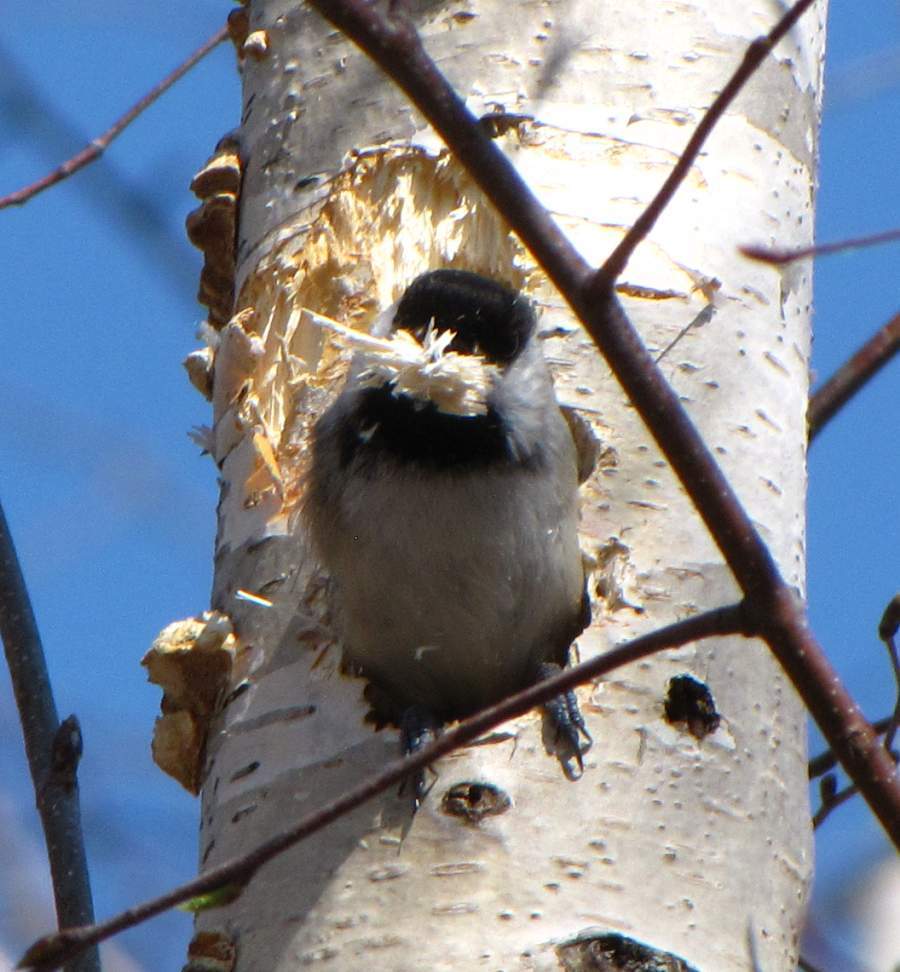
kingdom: Animalia
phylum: Chordata
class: Aves
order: Passeriformes
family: Paridae
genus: Poecile
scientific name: Poecile atricapillus
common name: Black-capped chickadee
